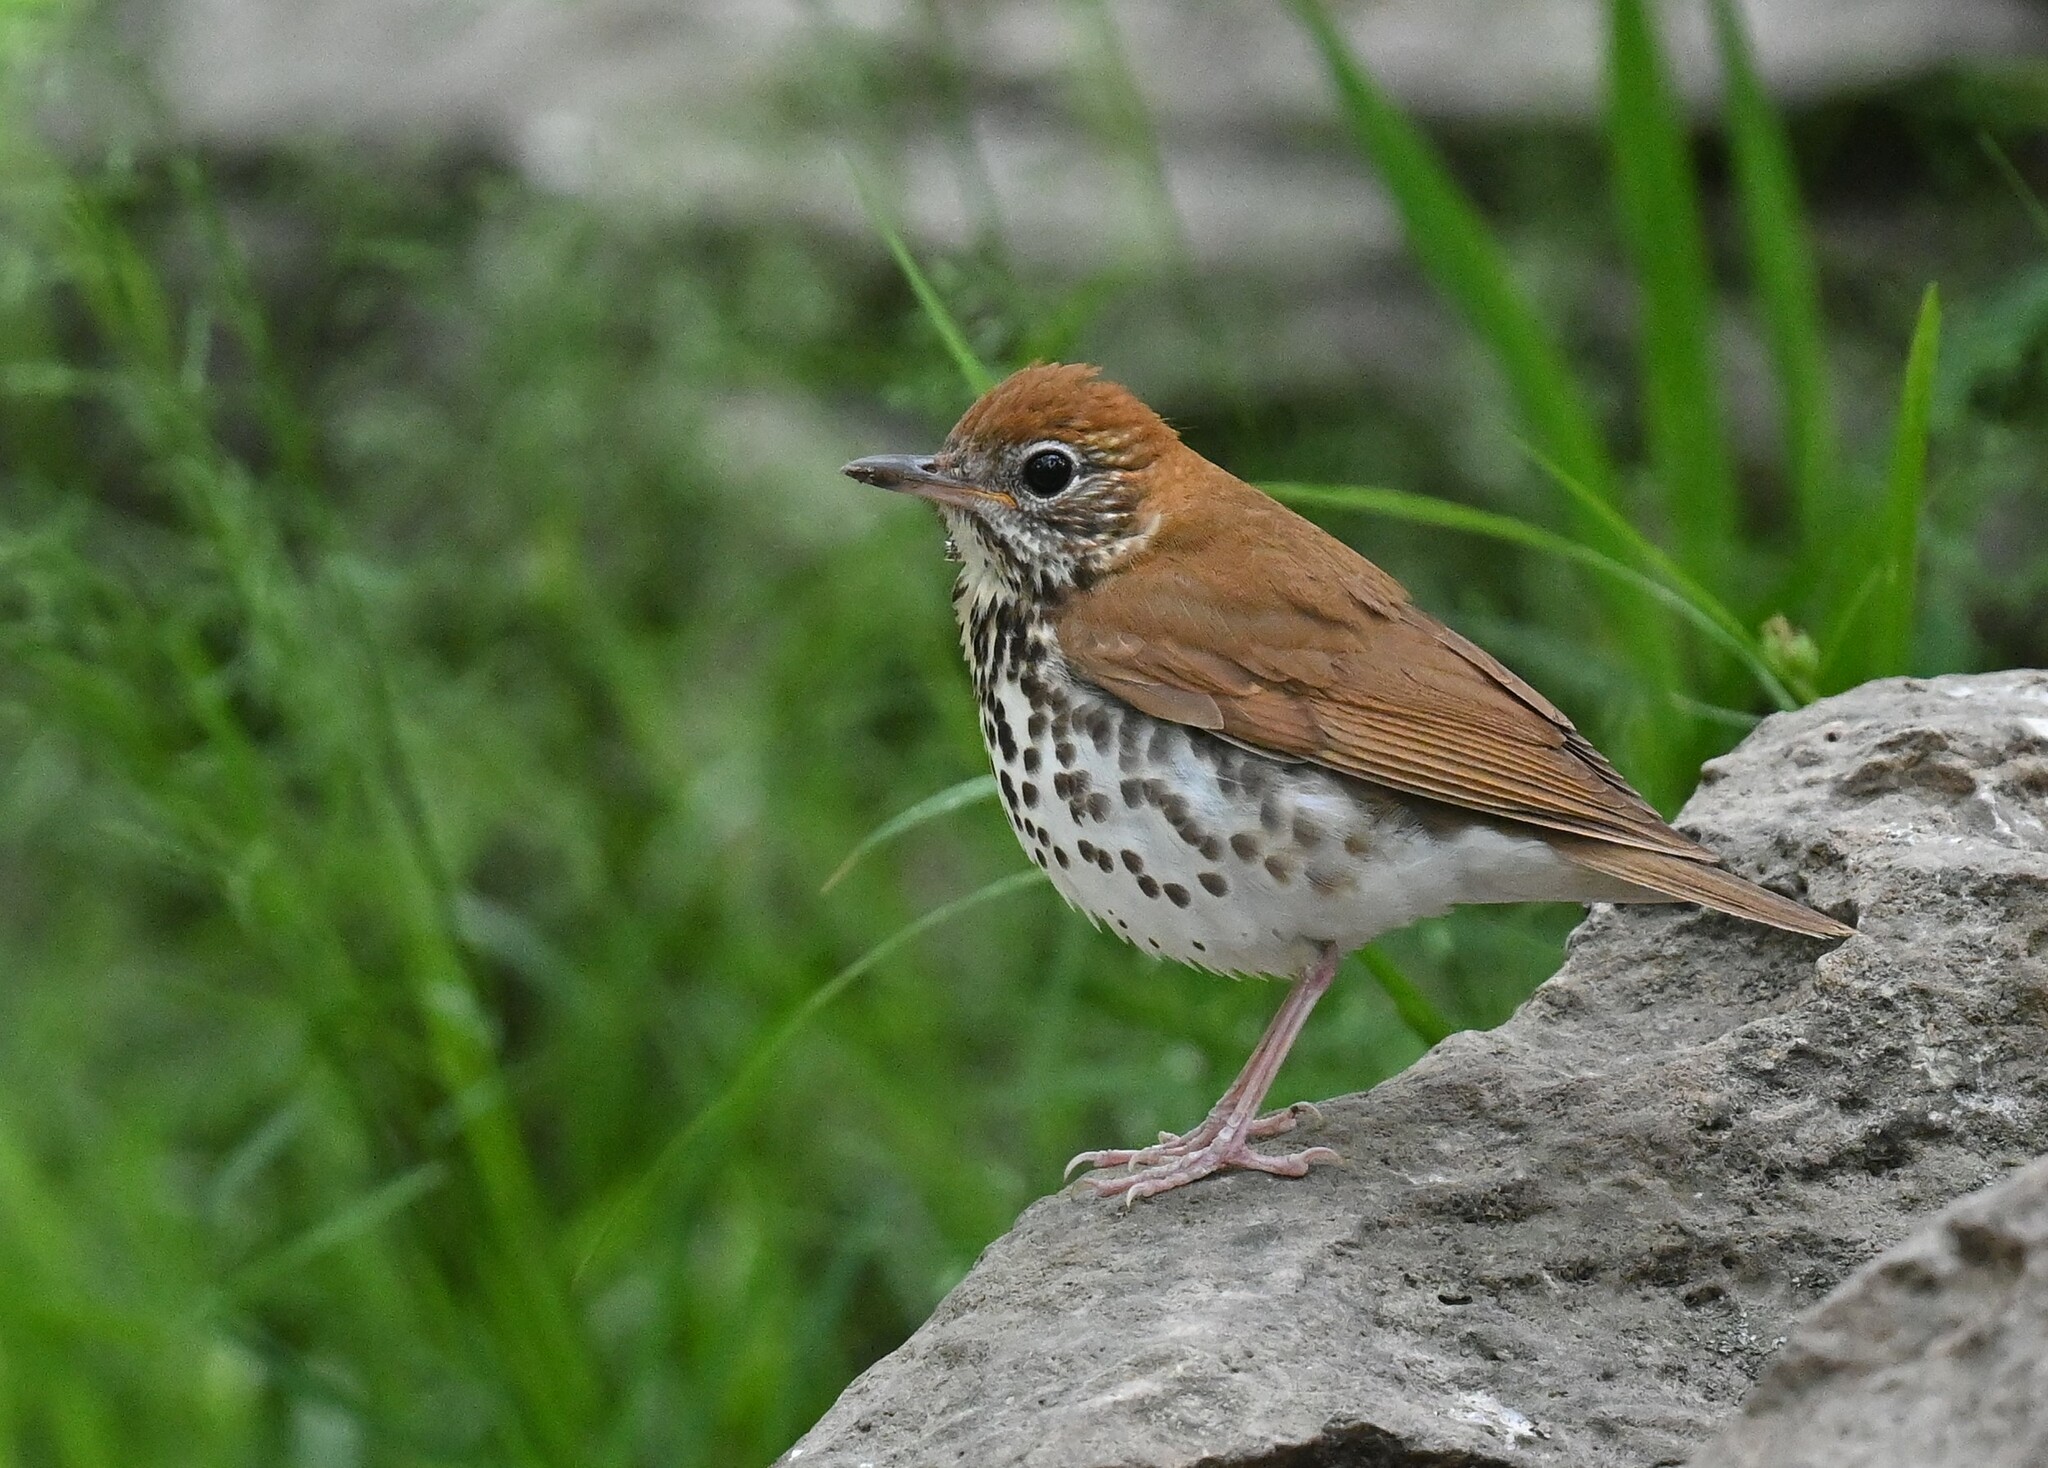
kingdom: Animalia
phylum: Chordata
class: Aves
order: Passeriformes
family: Turdidae
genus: Hylocichla
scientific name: Hylocichla mustelina
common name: Wood thrush
